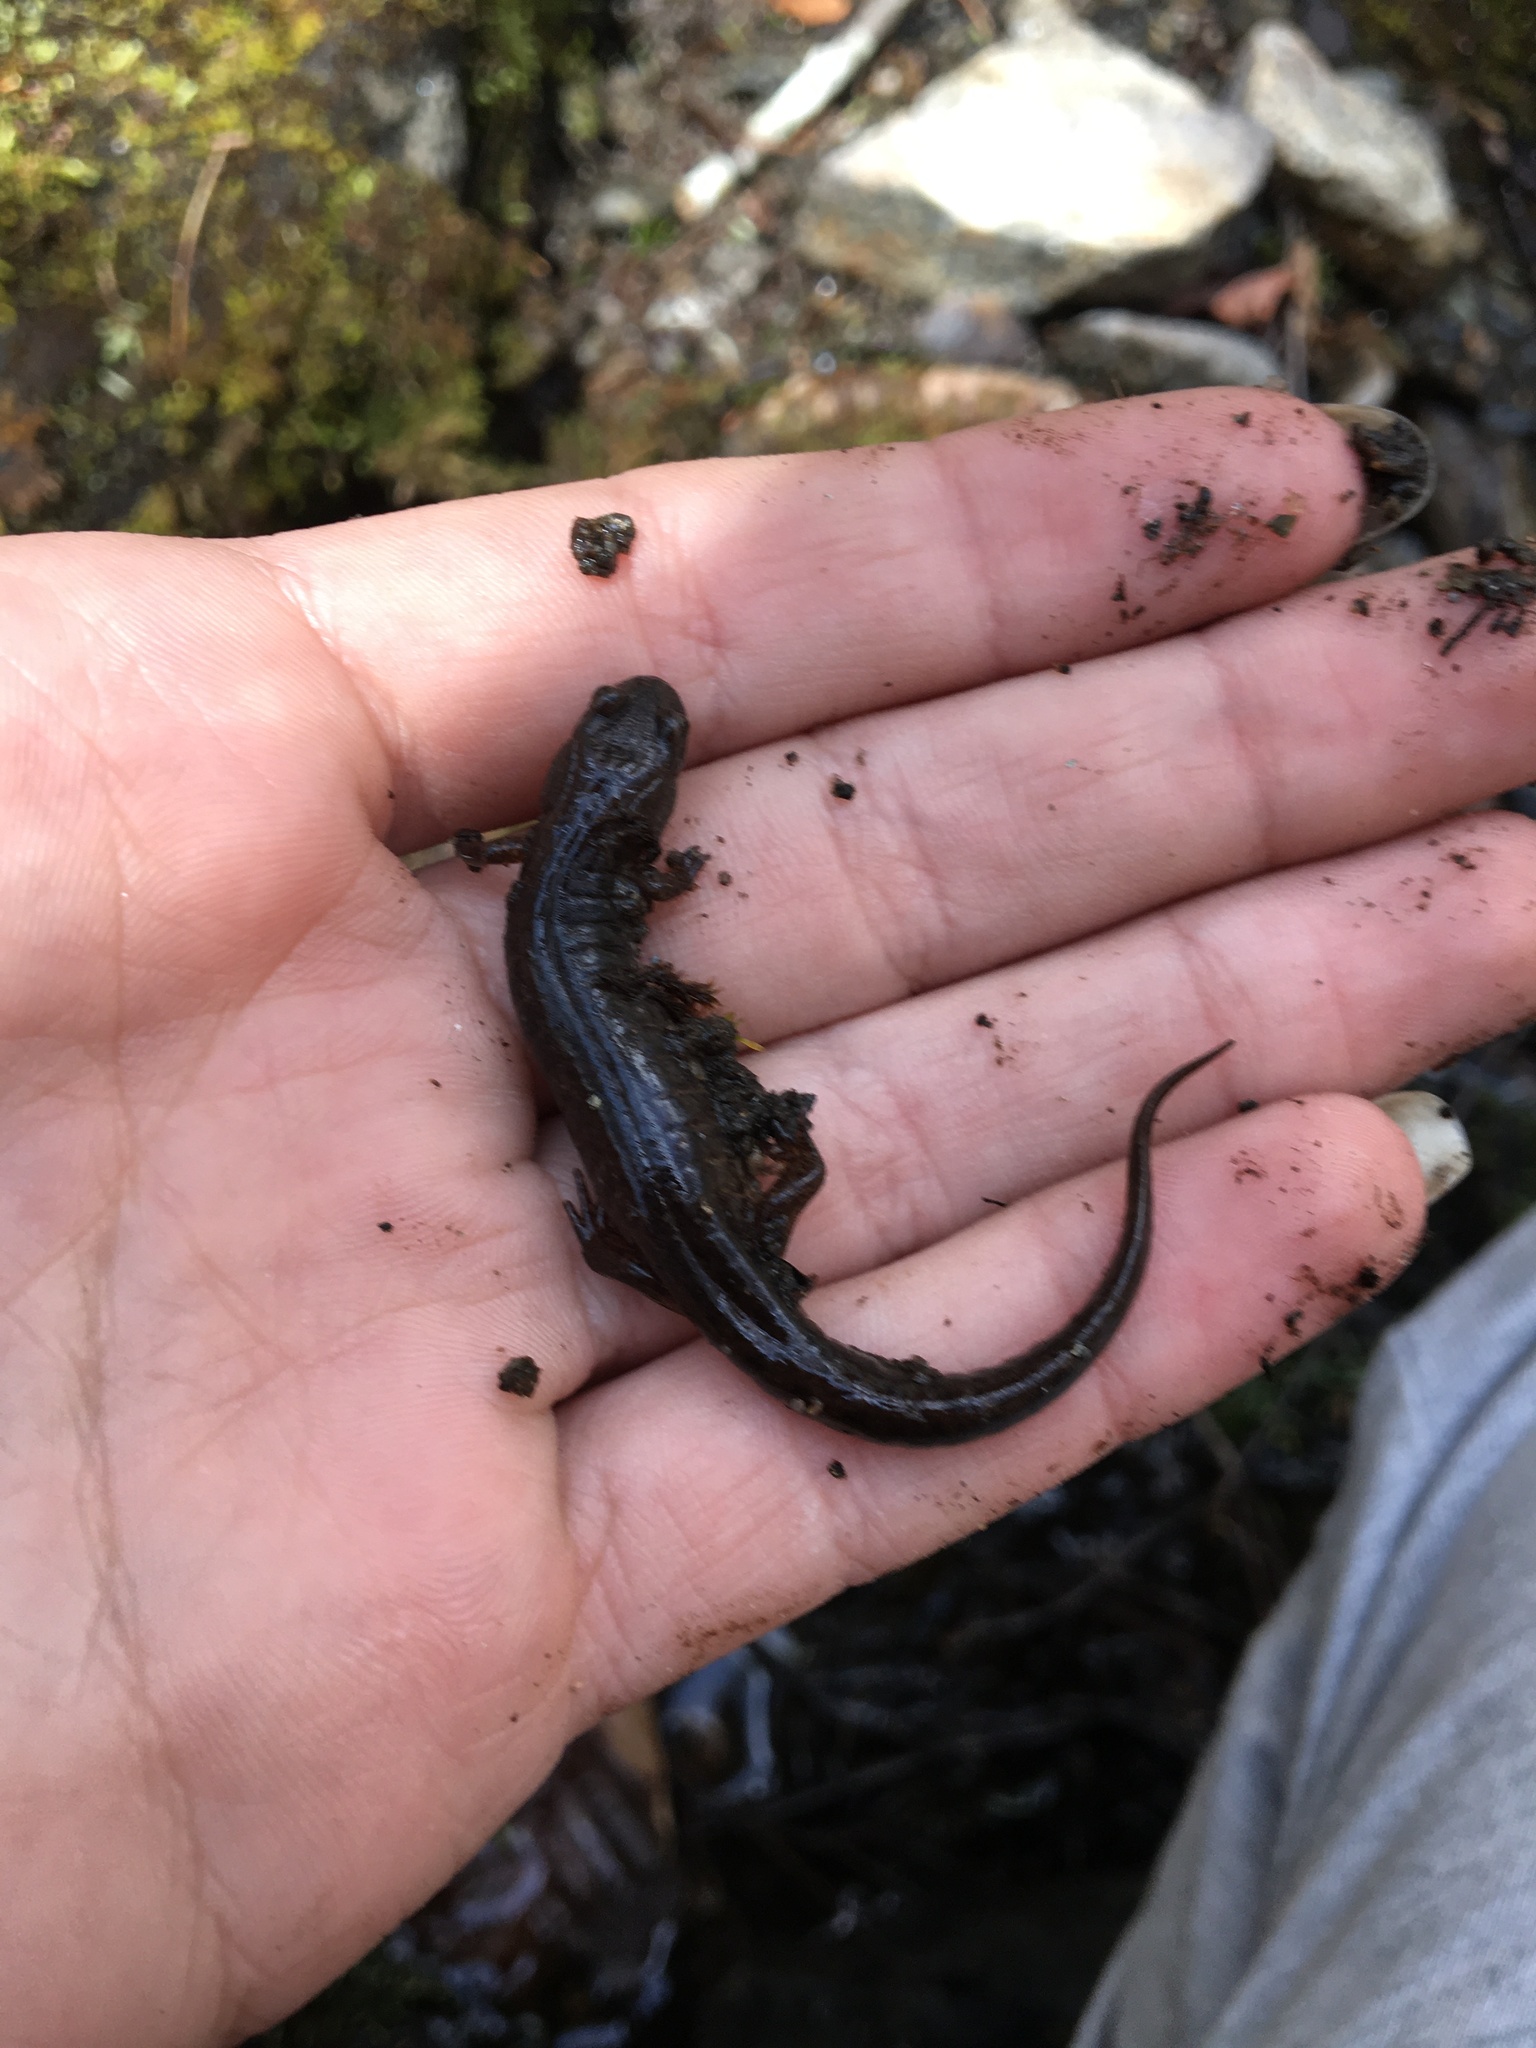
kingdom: Animalia
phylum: Chordata
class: Amphibia
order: Caudata
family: Plethodontidae
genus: Desmognathus
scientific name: Desmognathus fuscus
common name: Northern dusky salamander
